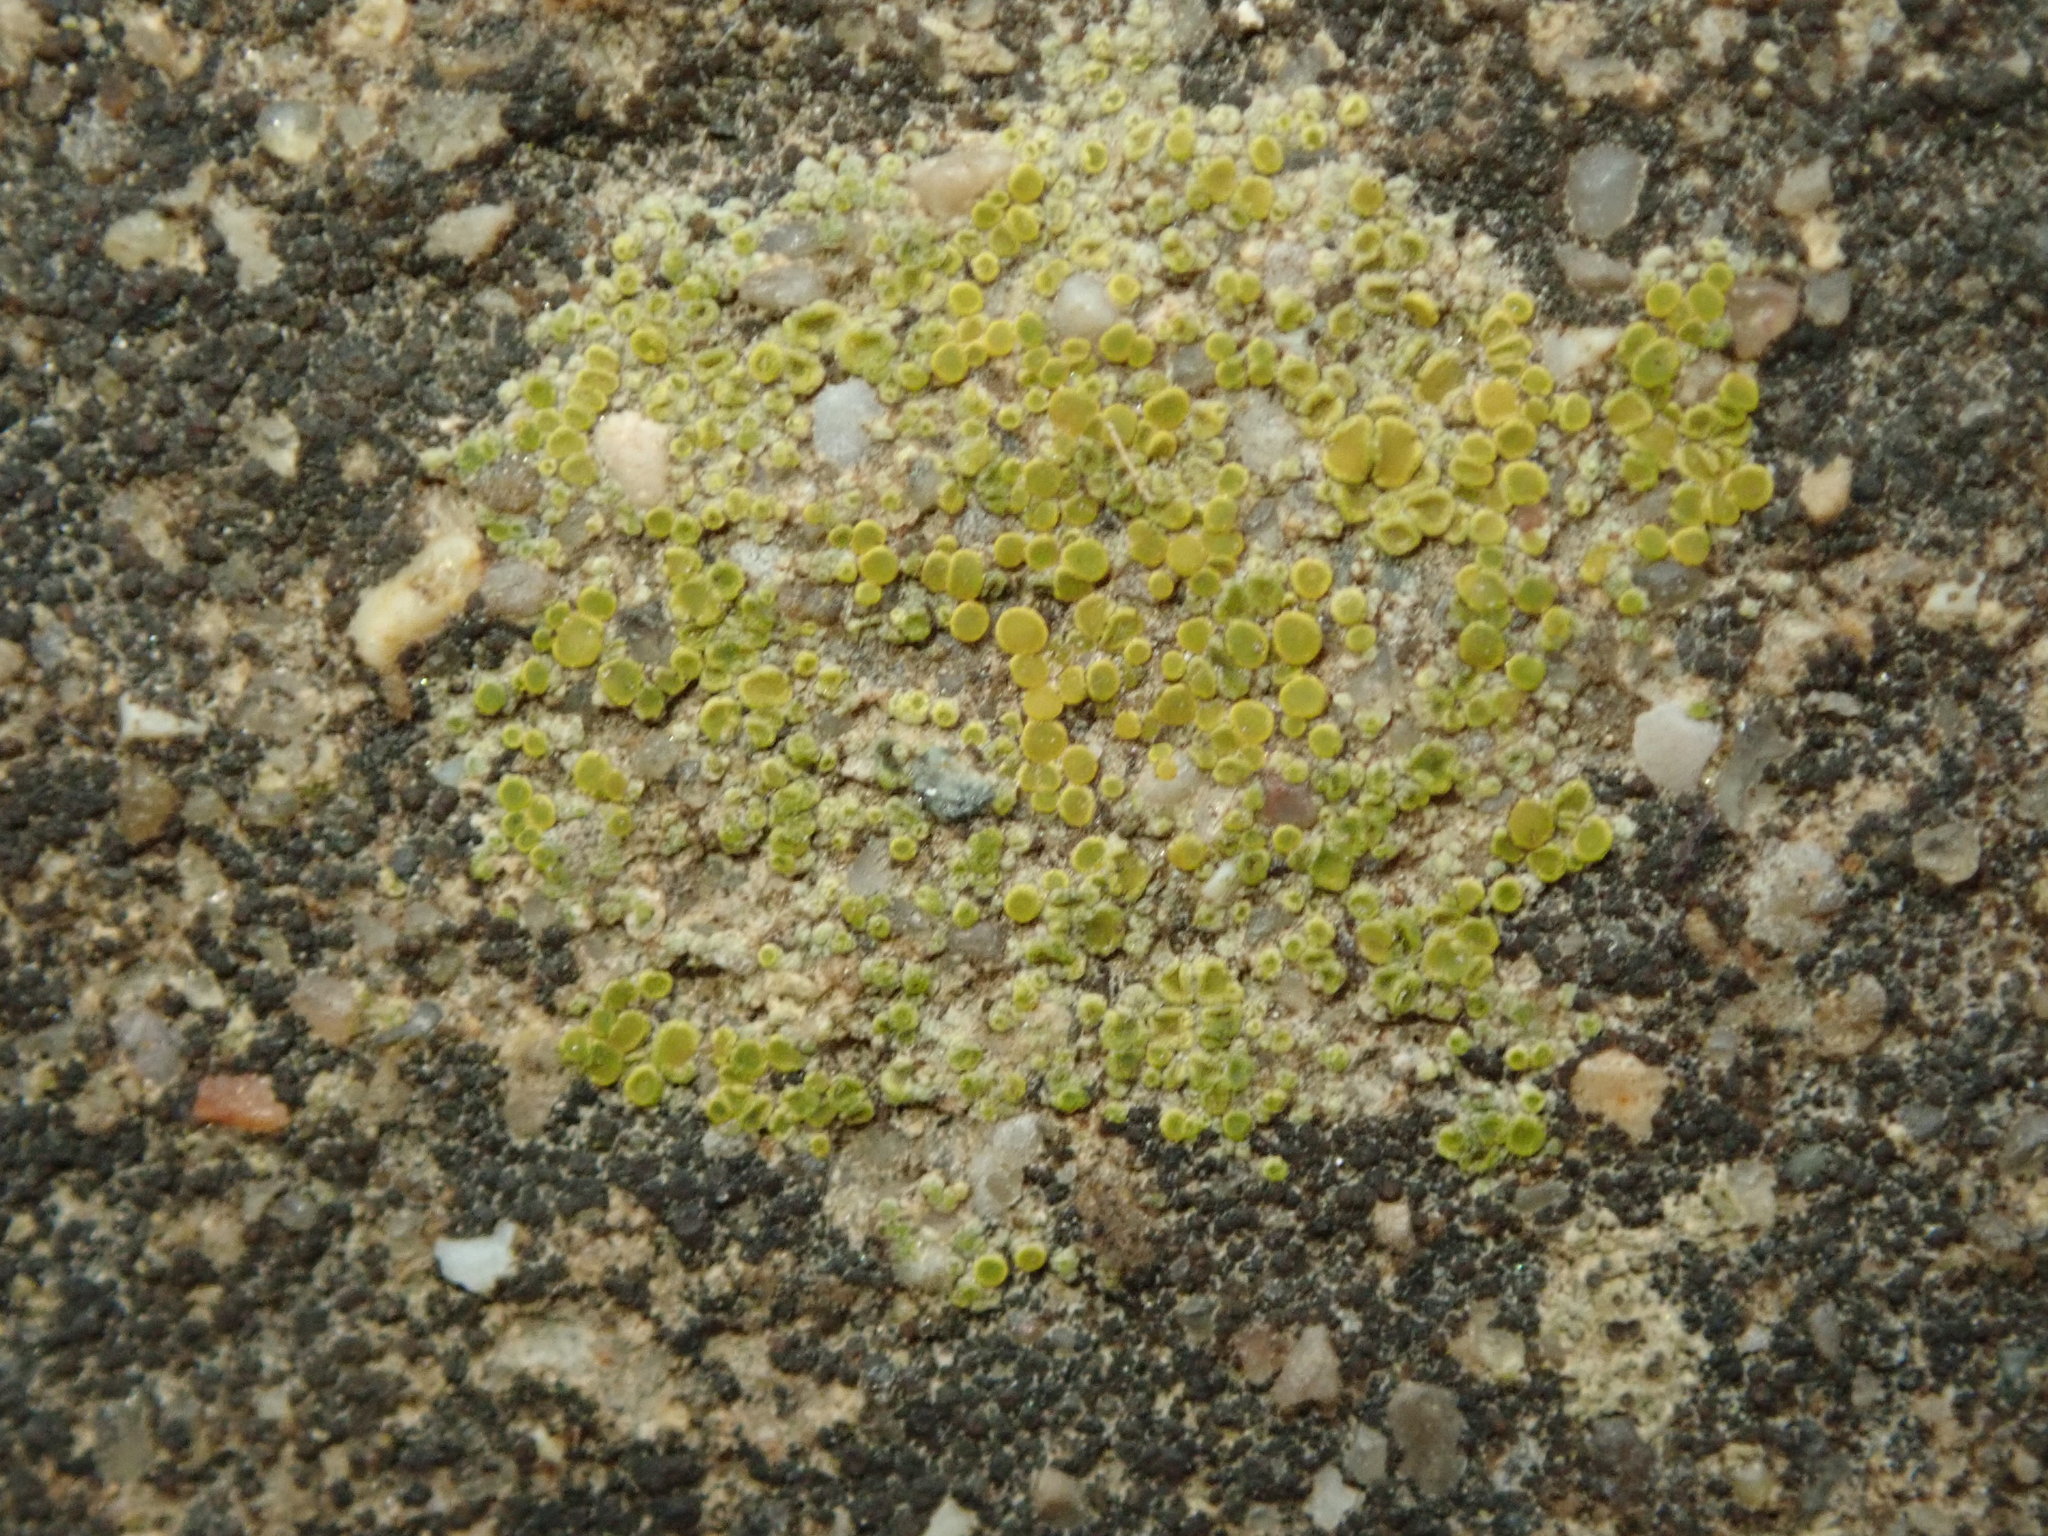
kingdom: Fungi
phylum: Ascomycota
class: Lecanoromycetes
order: Teloschistales
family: Teloschistaceae
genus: Xanthocarpia
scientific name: Xanthocarpia feracissima
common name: Sidewalk firedot
